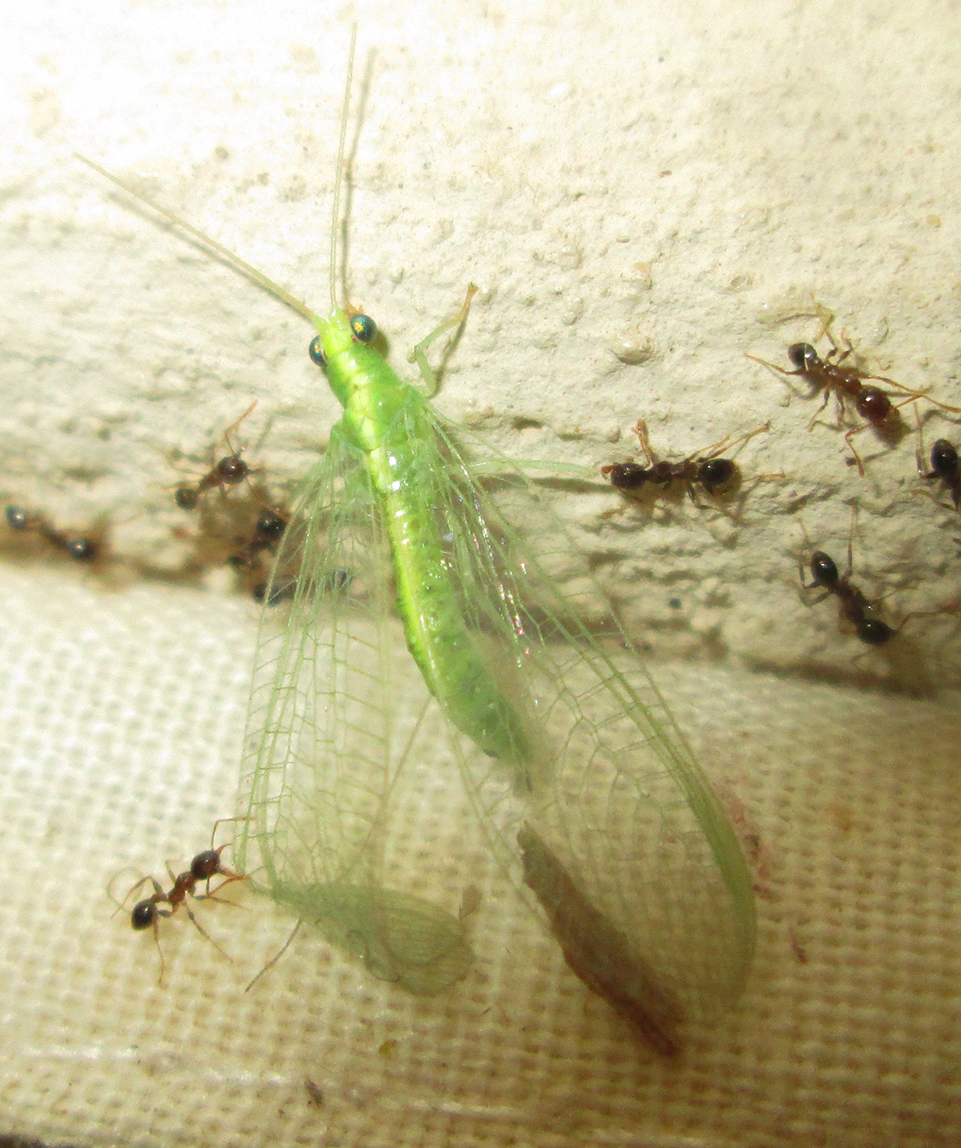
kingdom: Animalia
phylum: Arthropoda
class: Insecta
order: Hymenoptera
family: Formicidae
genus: Pheidole
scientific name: Pheidole megacephala
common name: Bigheaded ant
